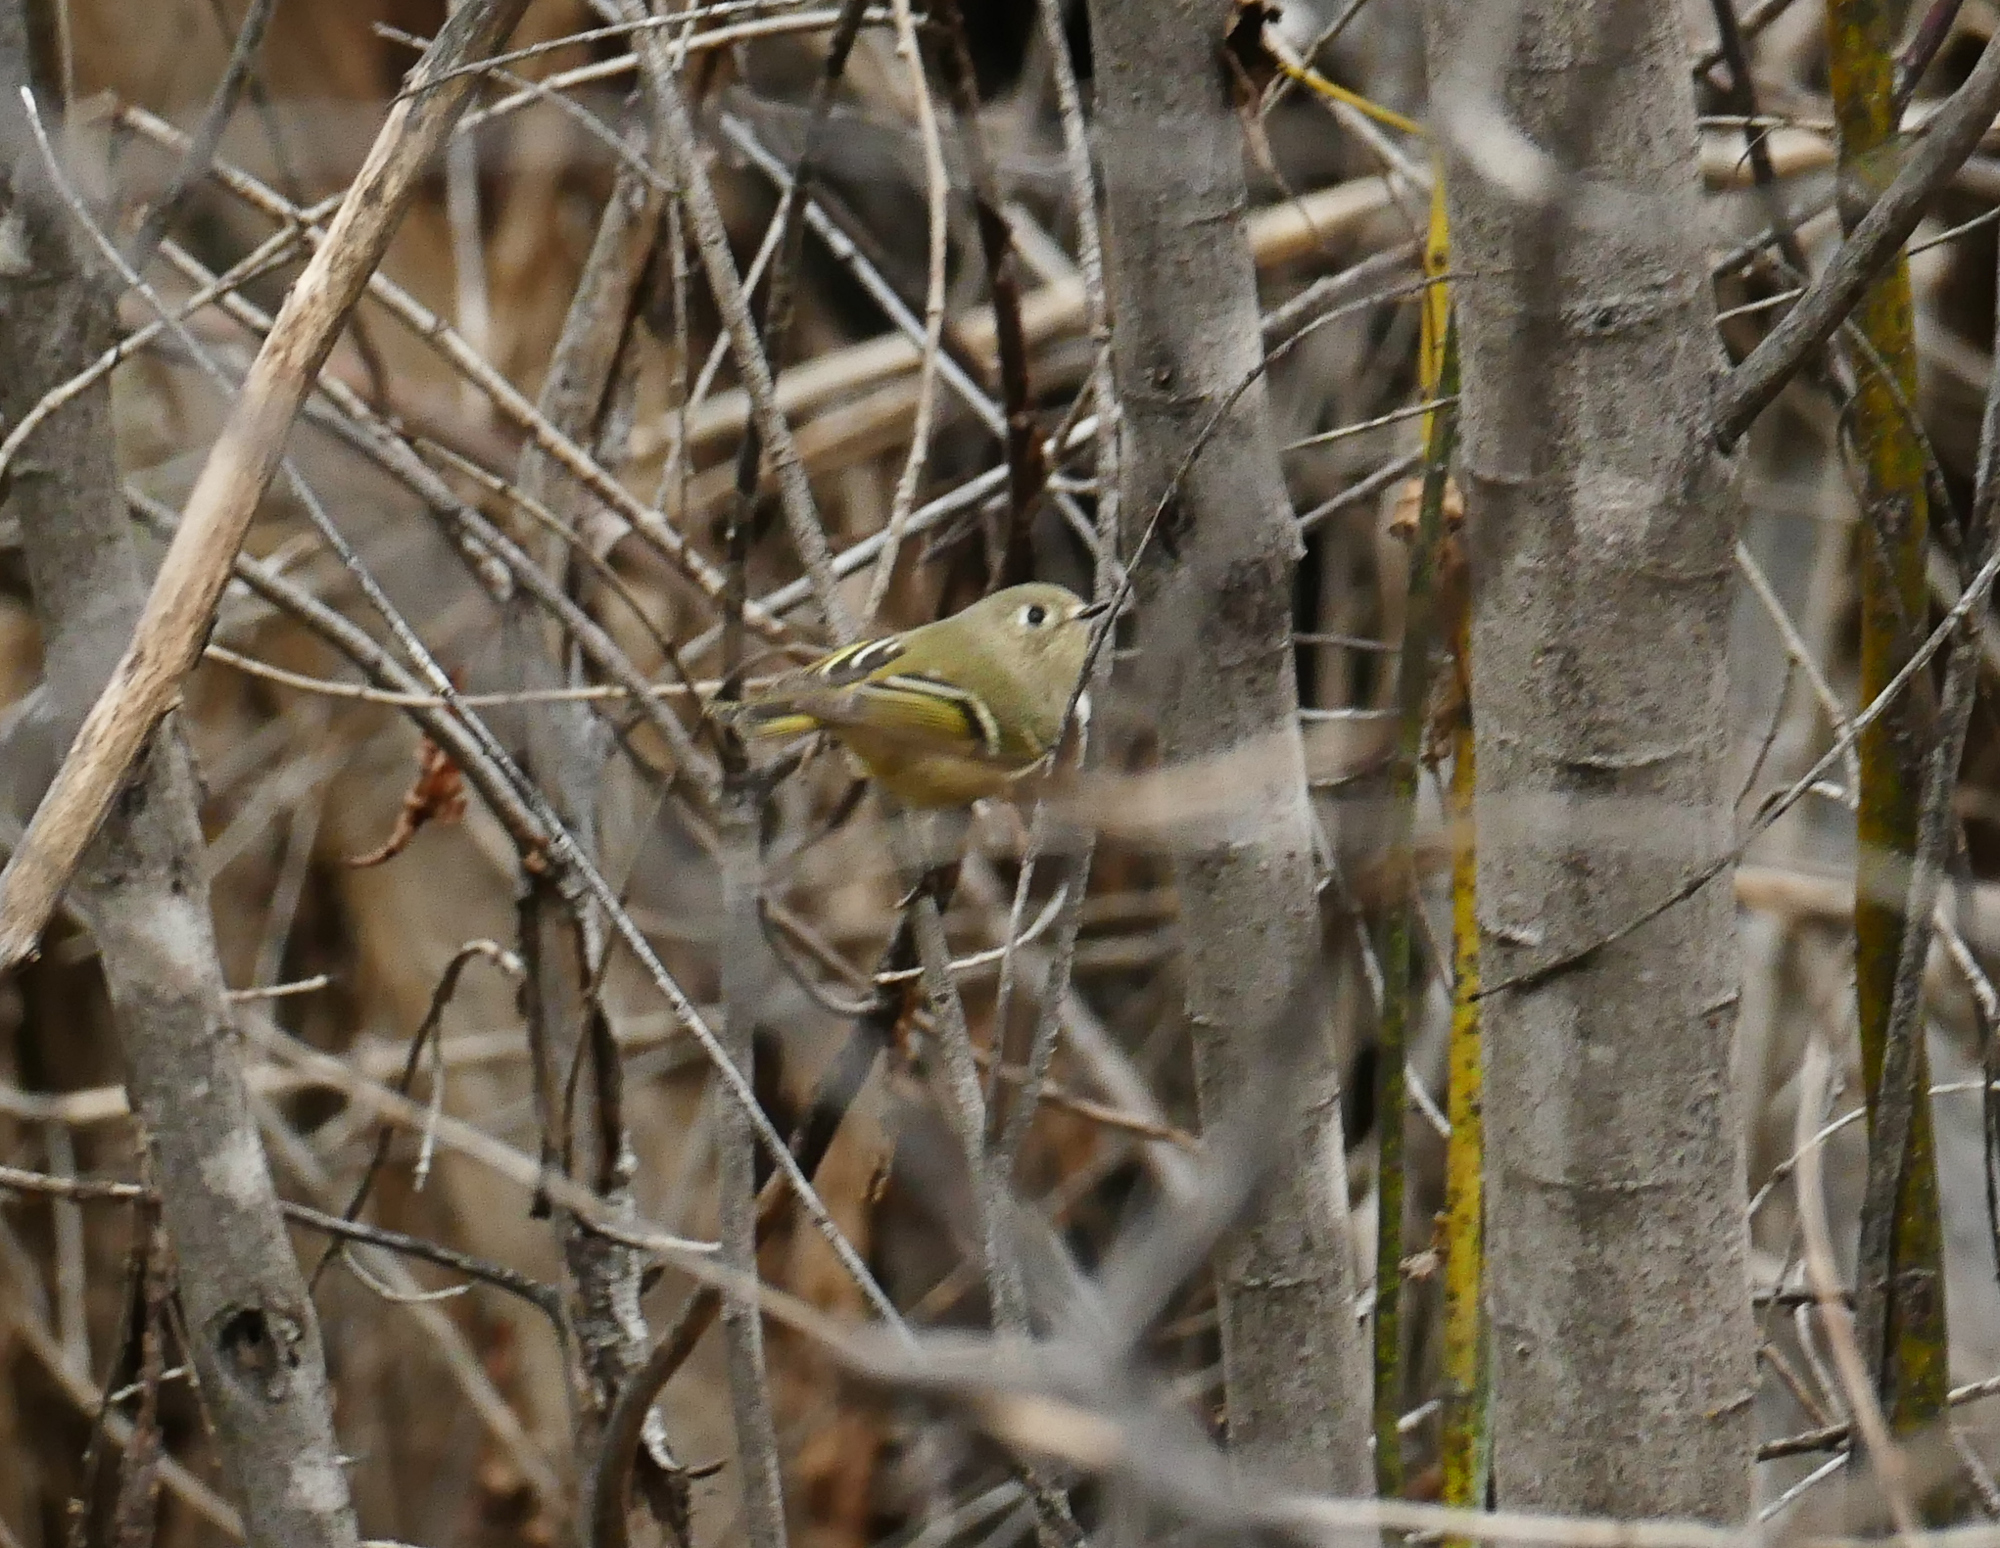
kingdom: Animalia
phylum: Chordata
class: Aves
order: Passeriformes
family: Regulidae
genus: Regulus
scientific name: Regulus calendula
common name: Ruby-crowned kinglet
